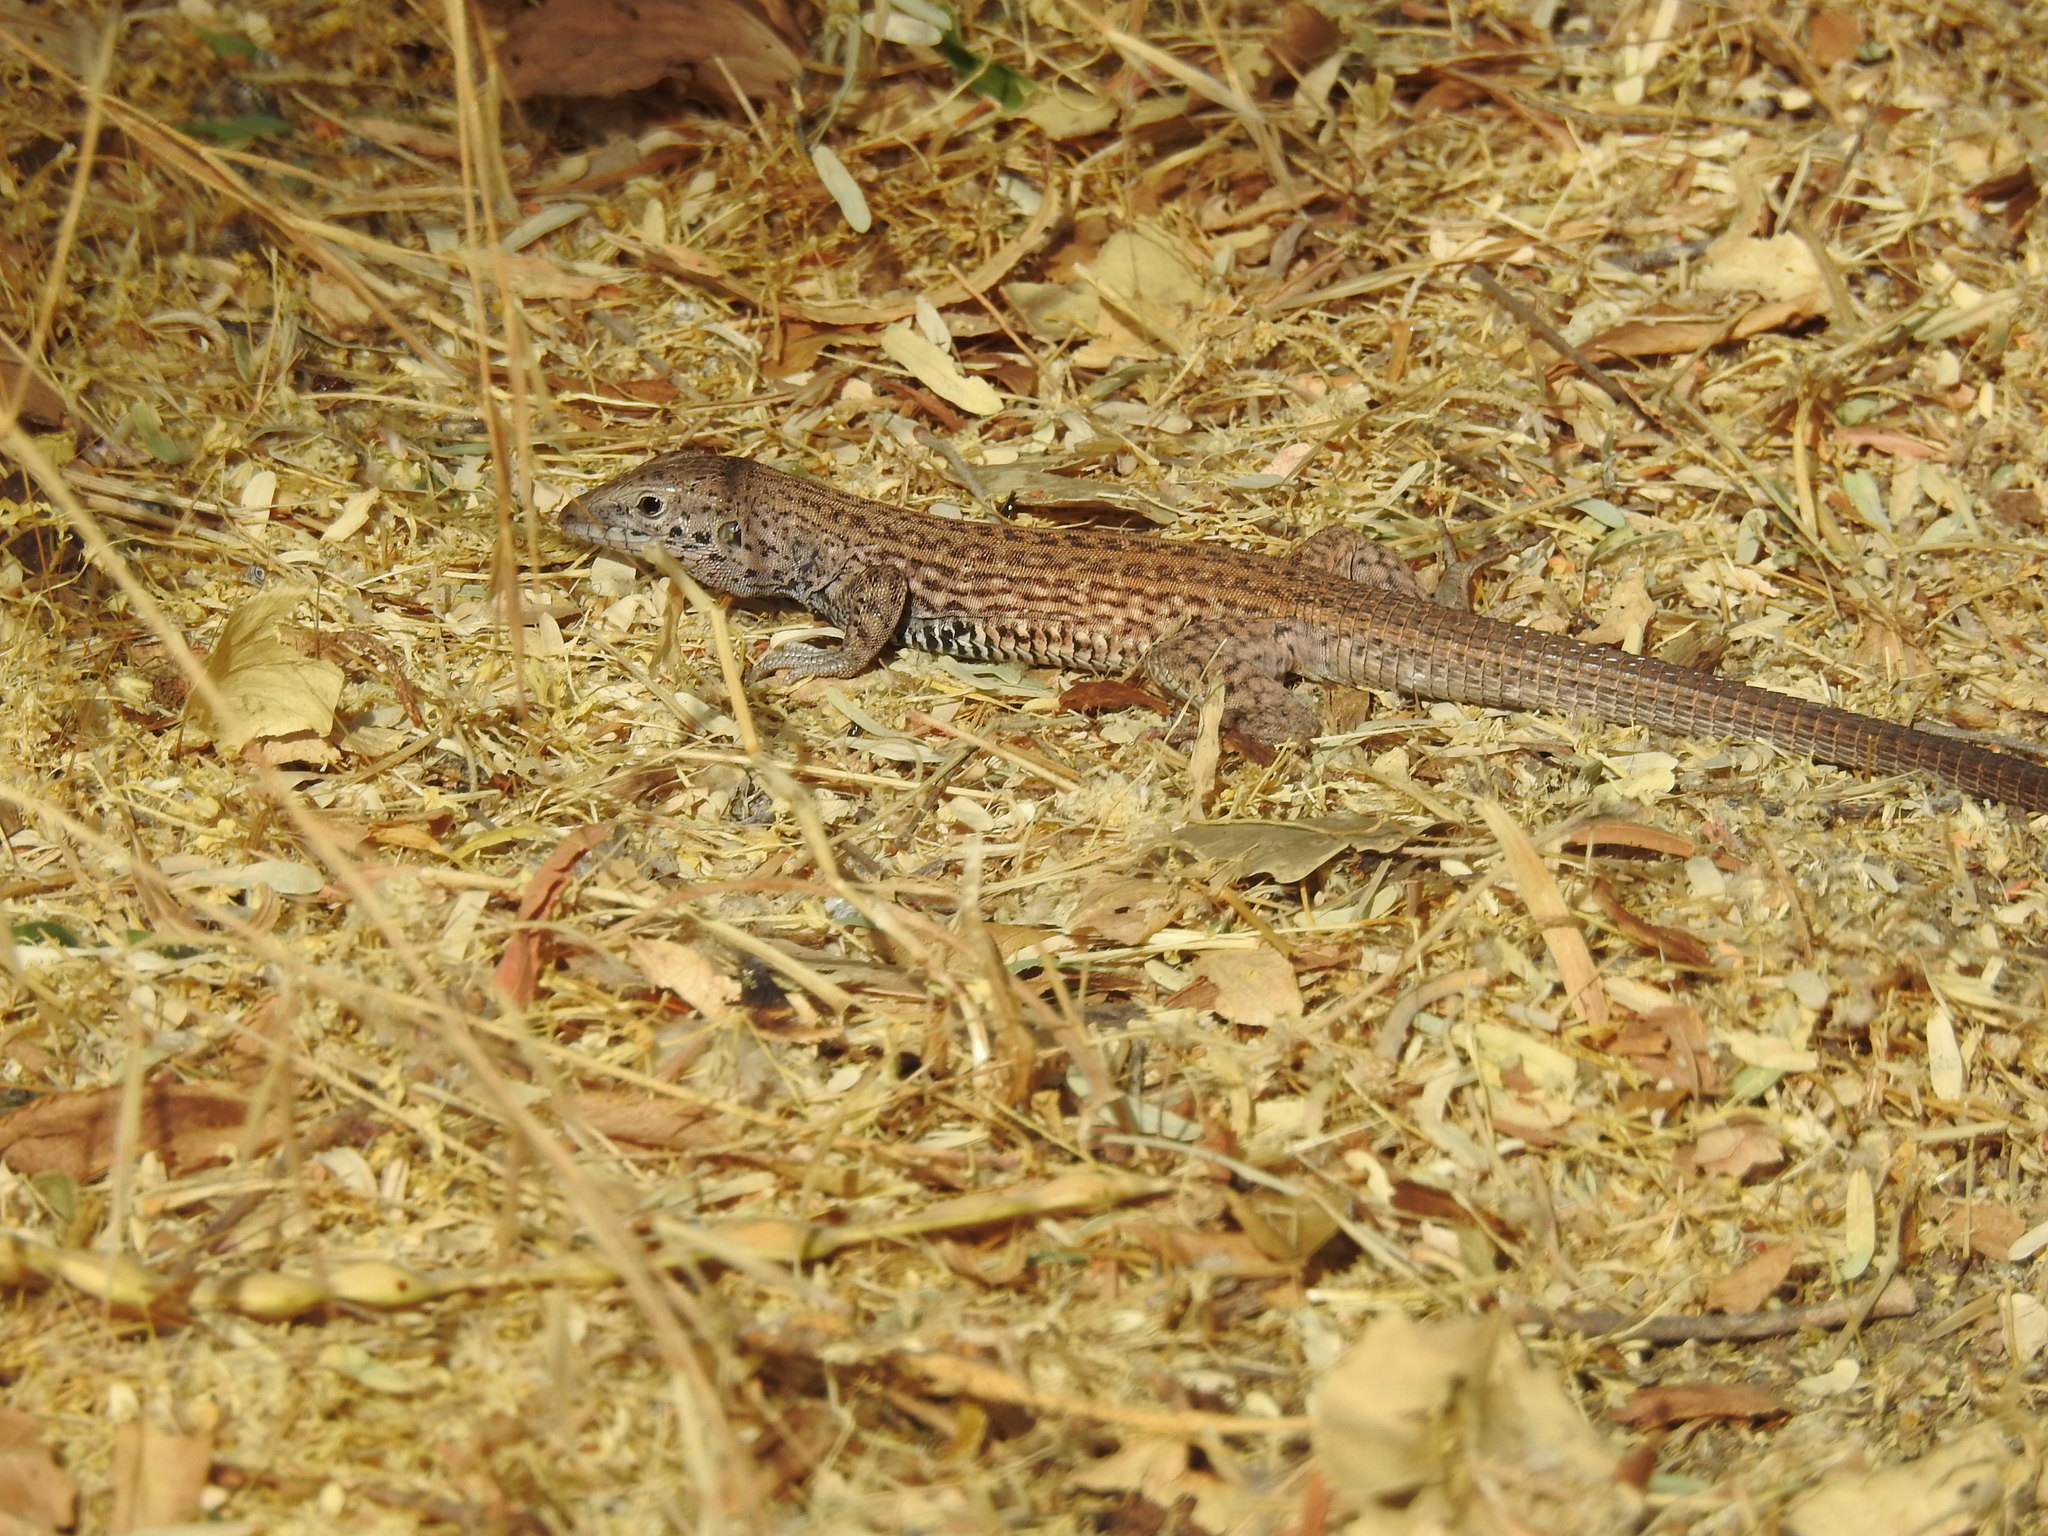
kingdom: Animalia
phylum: Chordata
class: Squamata
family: Teiidae
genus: Aspidoscelis
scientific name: Aspidoscelis tigris
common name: Tiger whiptail
